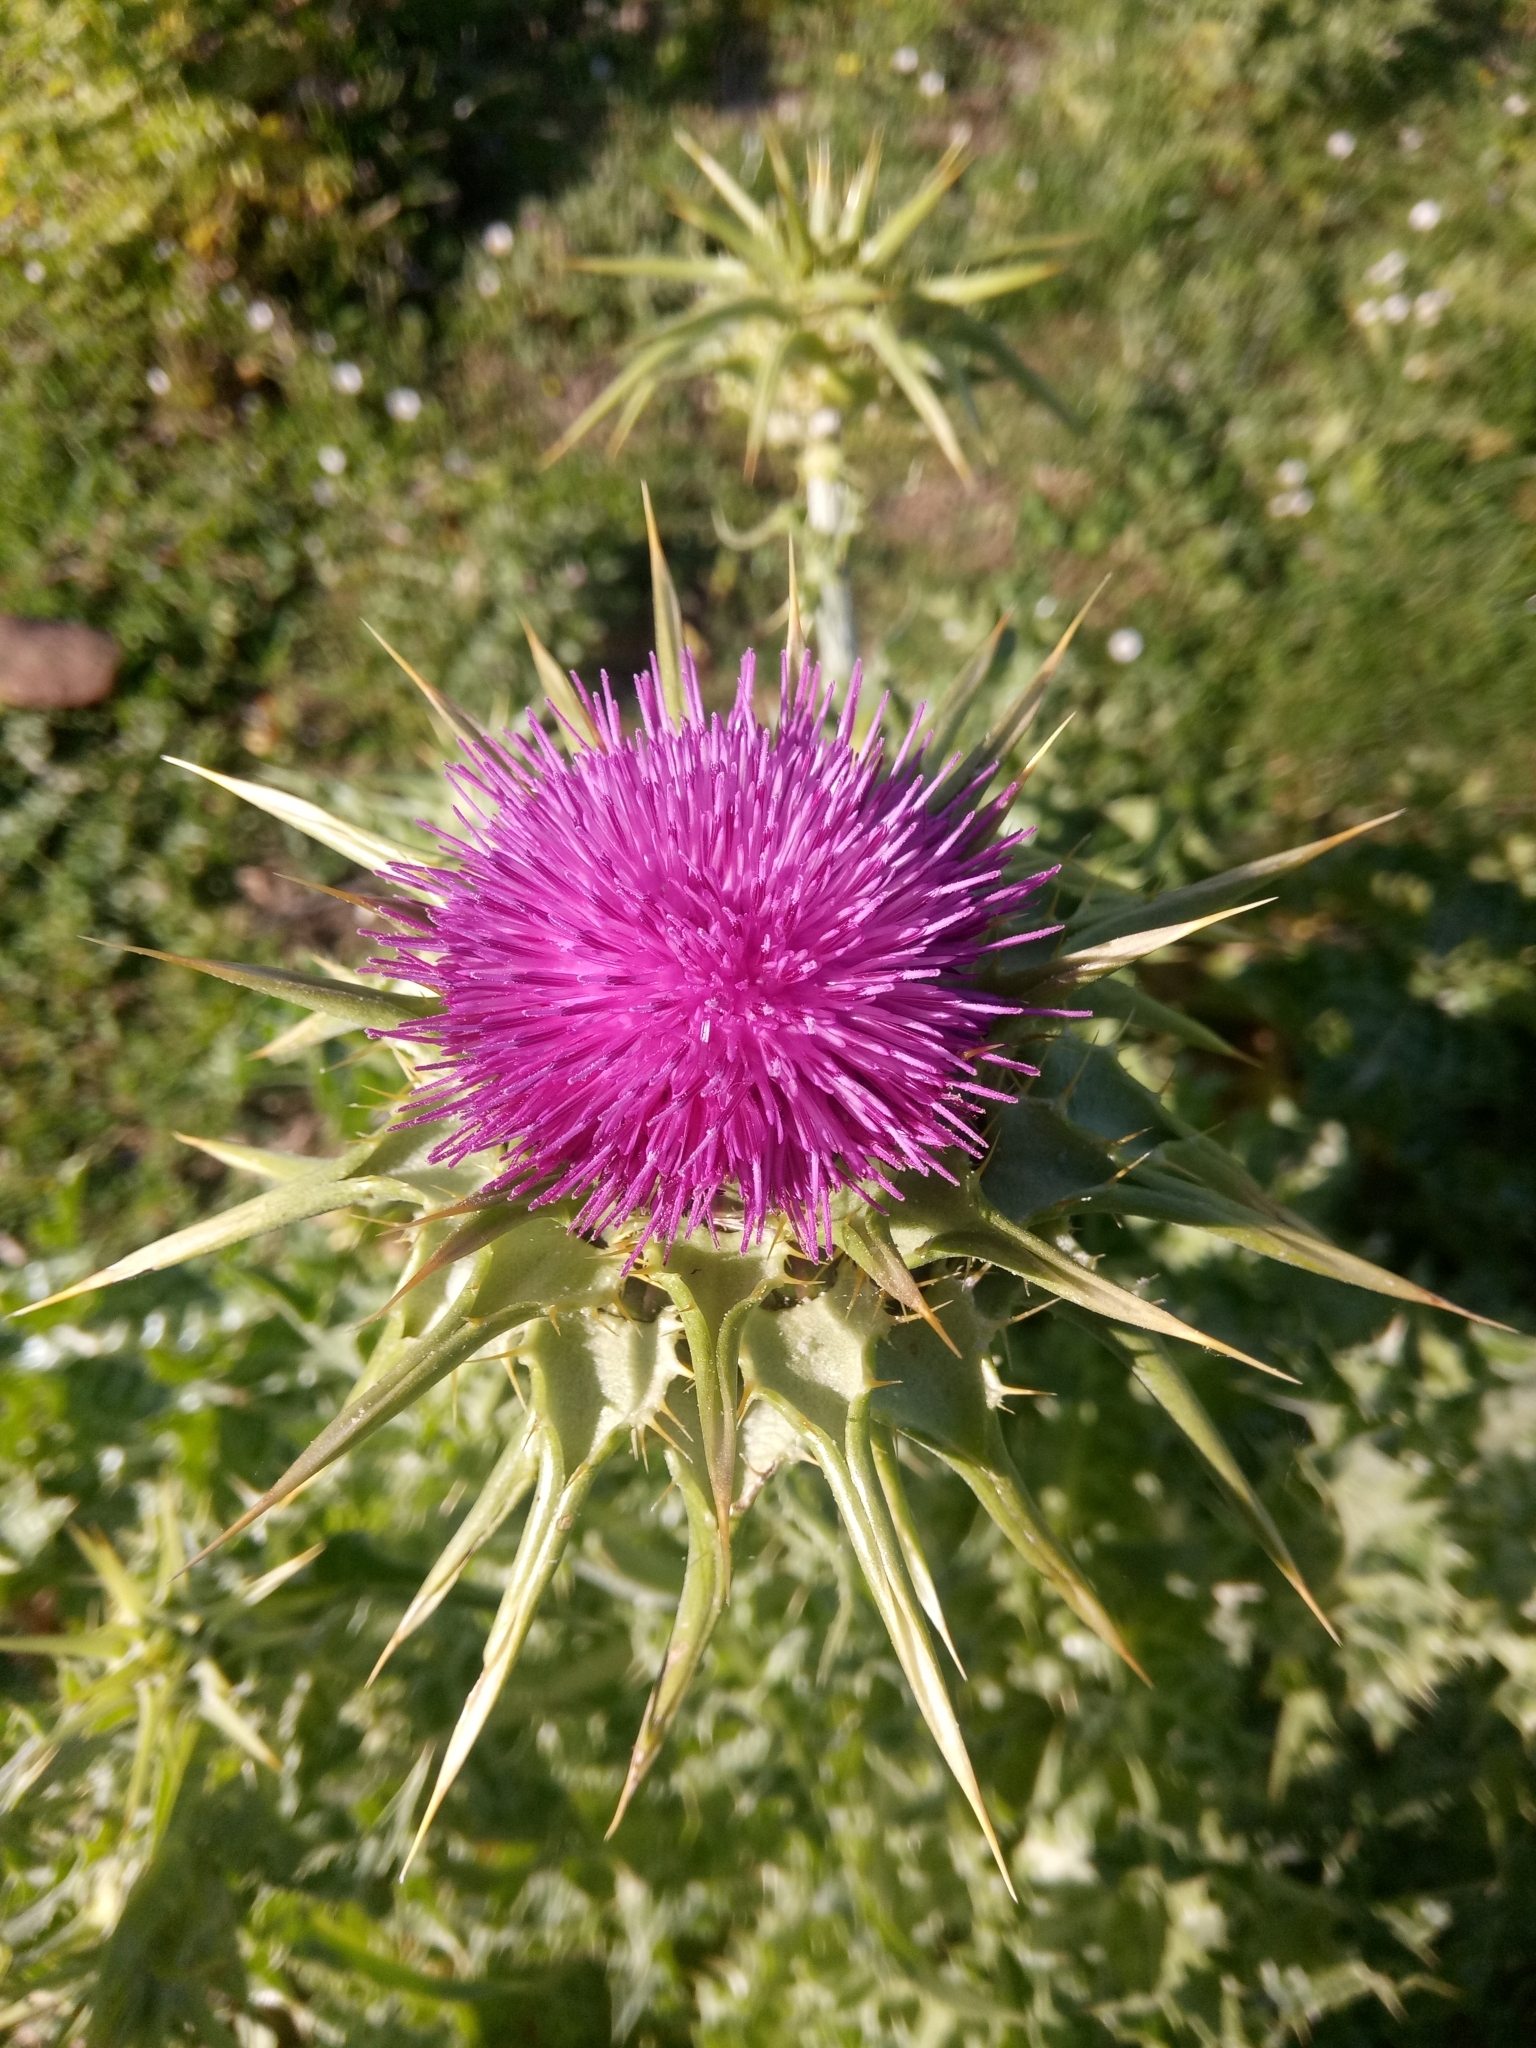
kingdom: Plantae
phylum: Tracheophyta
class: Magnoliopsida
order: Asterales
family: Asteraceae
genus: Silybum
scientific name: Silybum marianum
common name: Milk thistle
